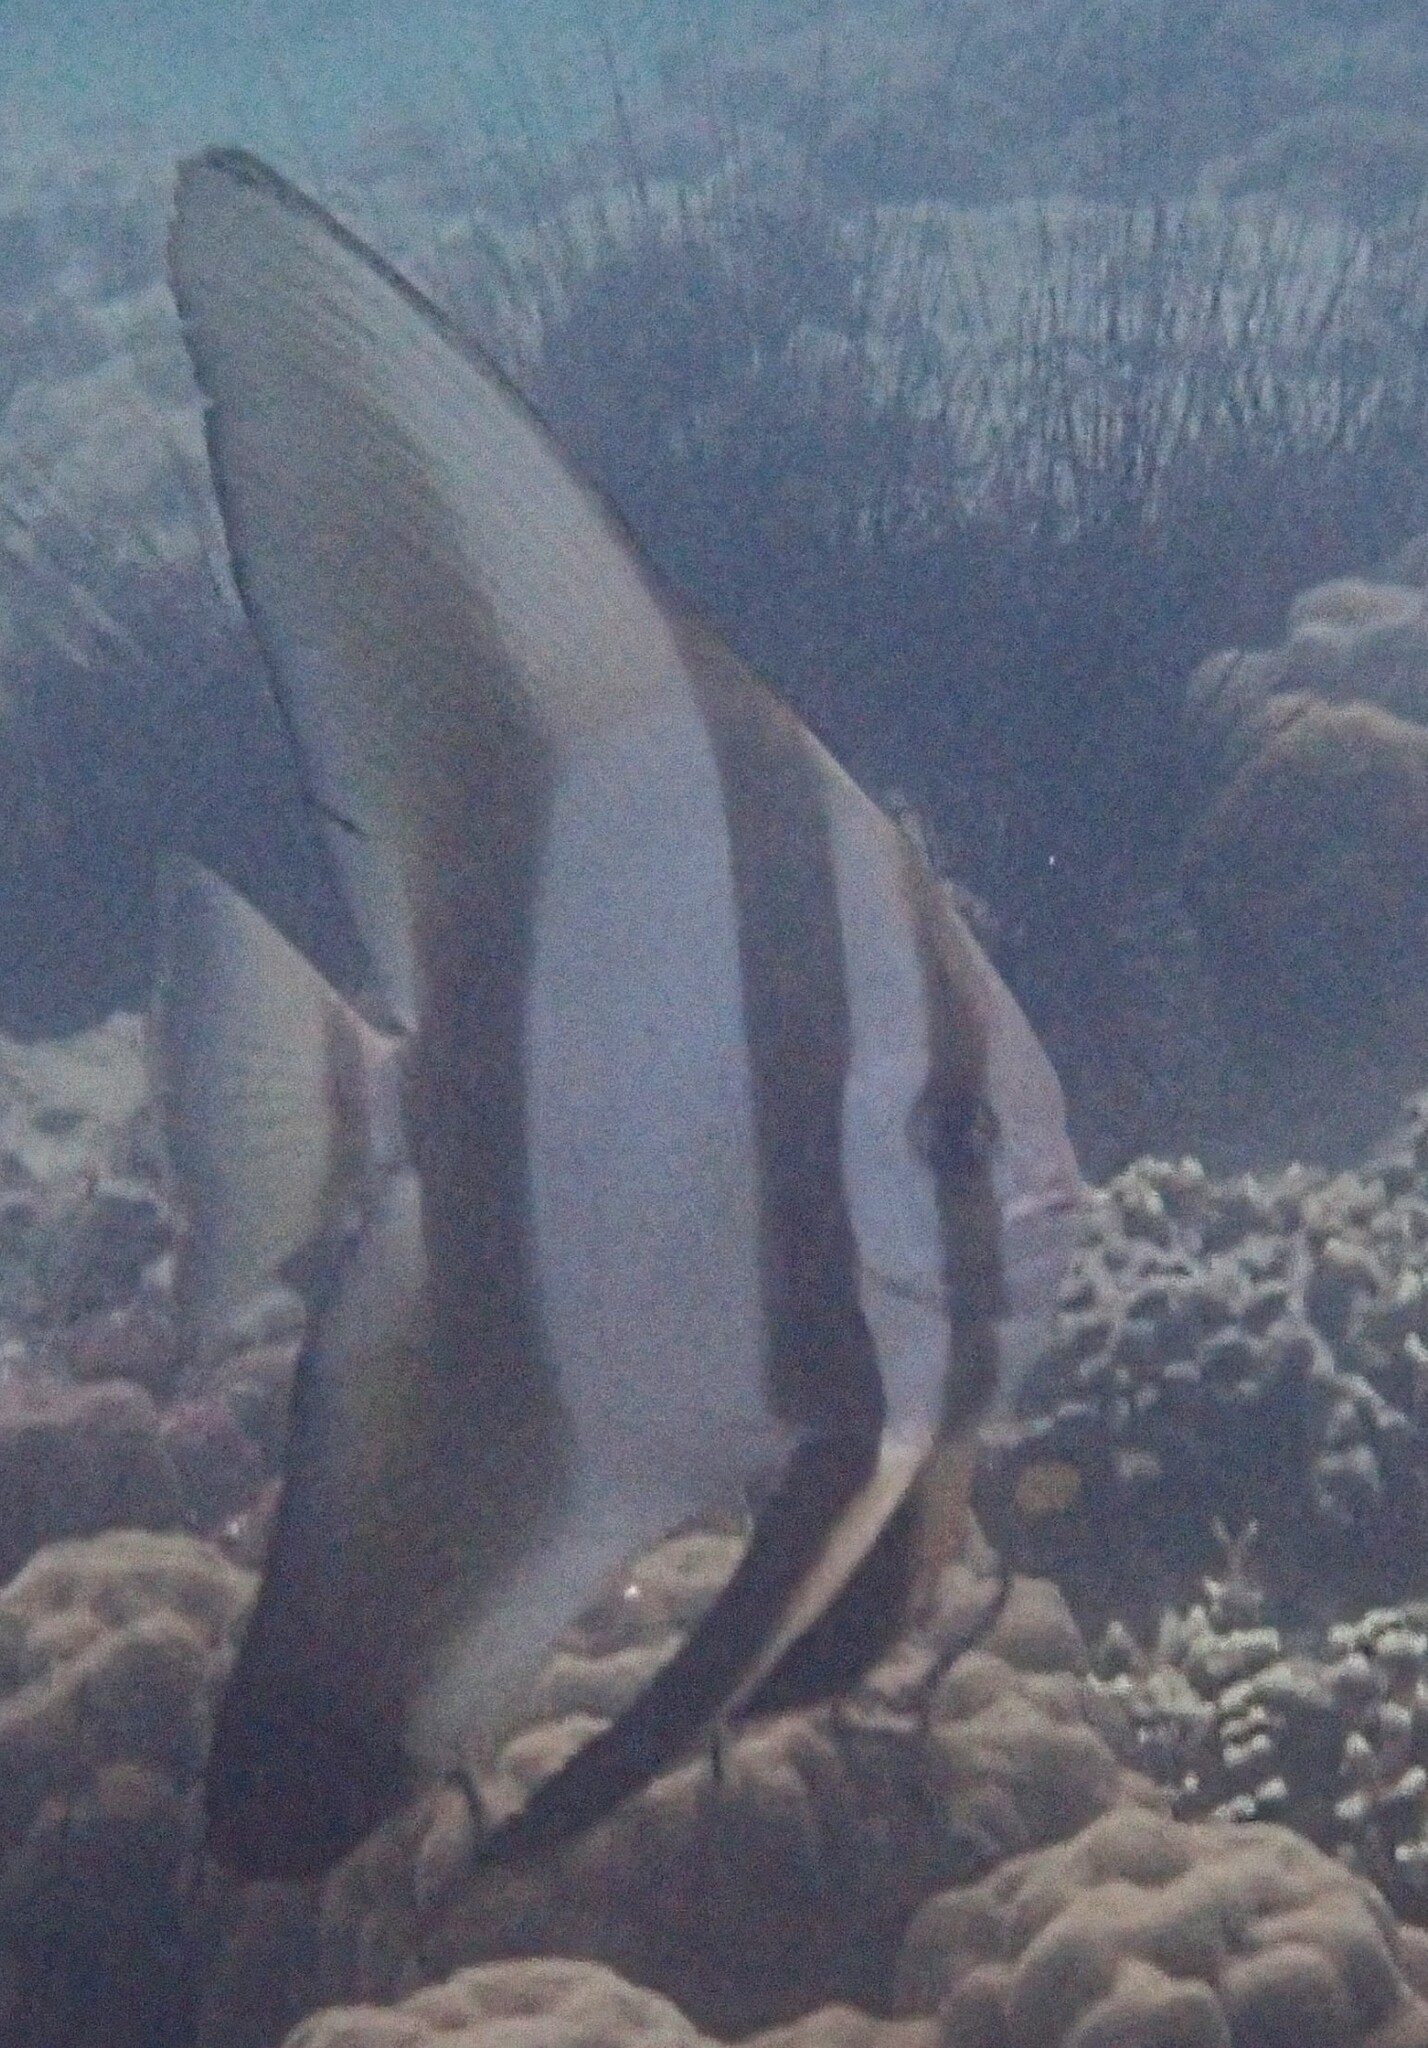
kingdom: Animalia
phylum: Chordata
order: Perciformes
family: Ephippidae
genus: Platax
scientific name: Platax orbicularis
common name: Batfish
